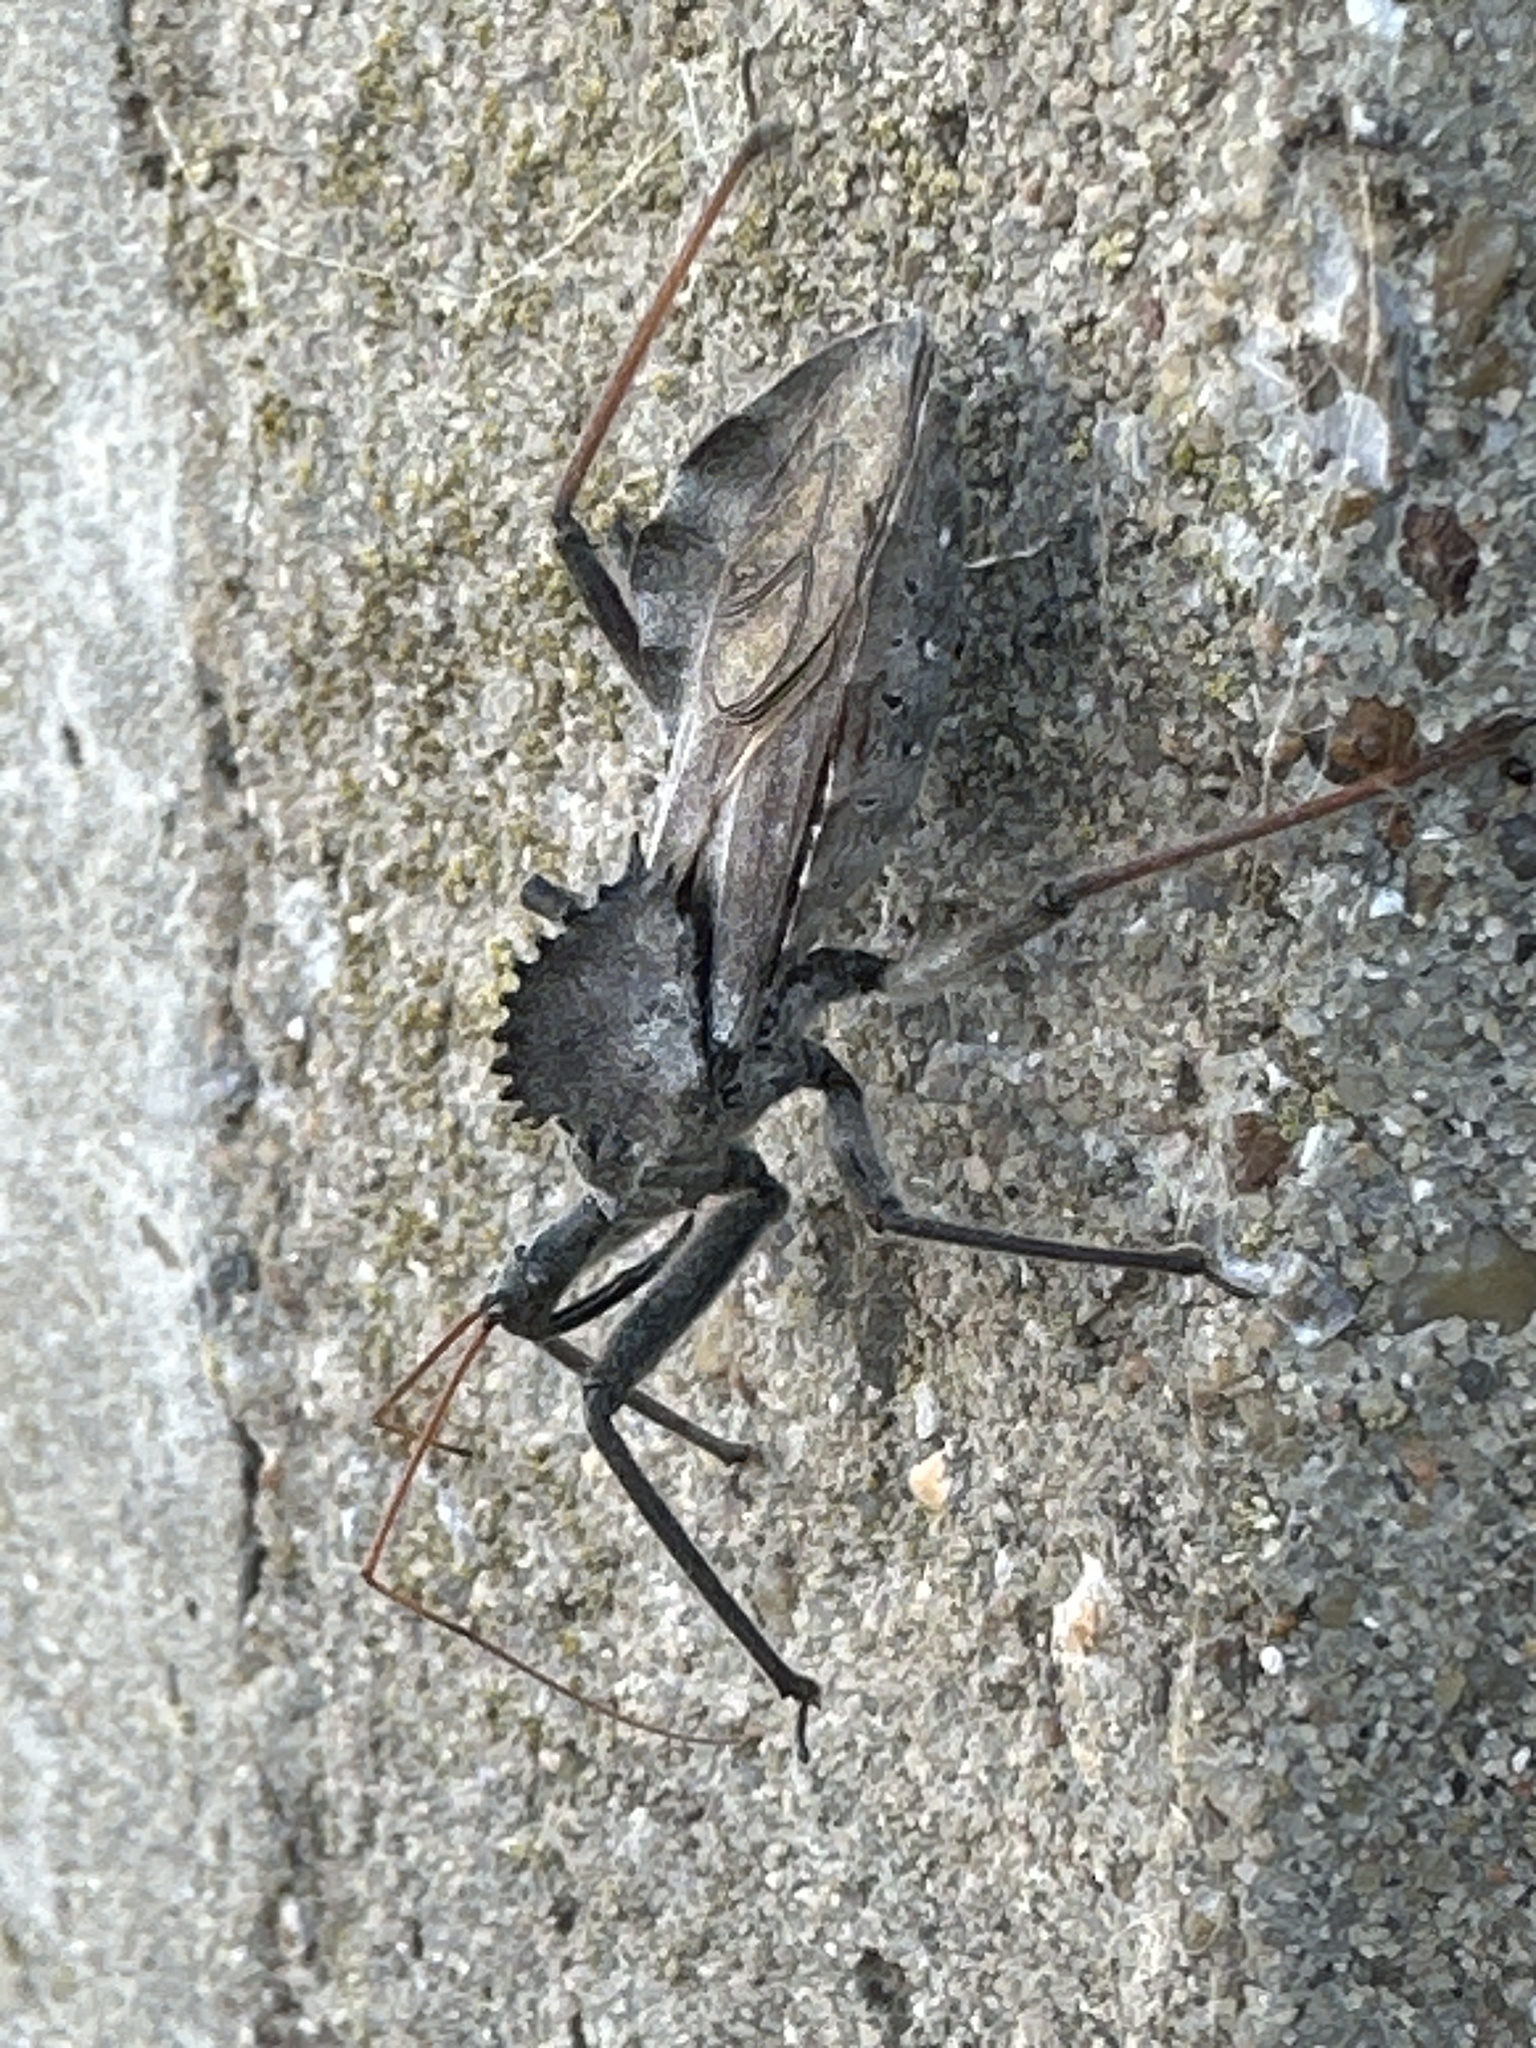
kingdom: Animalia
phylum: Arthropoda
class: Insecta
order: Hemiptera
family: Reduviidae
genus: Arilus
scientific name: Arilus cristatus
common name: North american wheel bug
